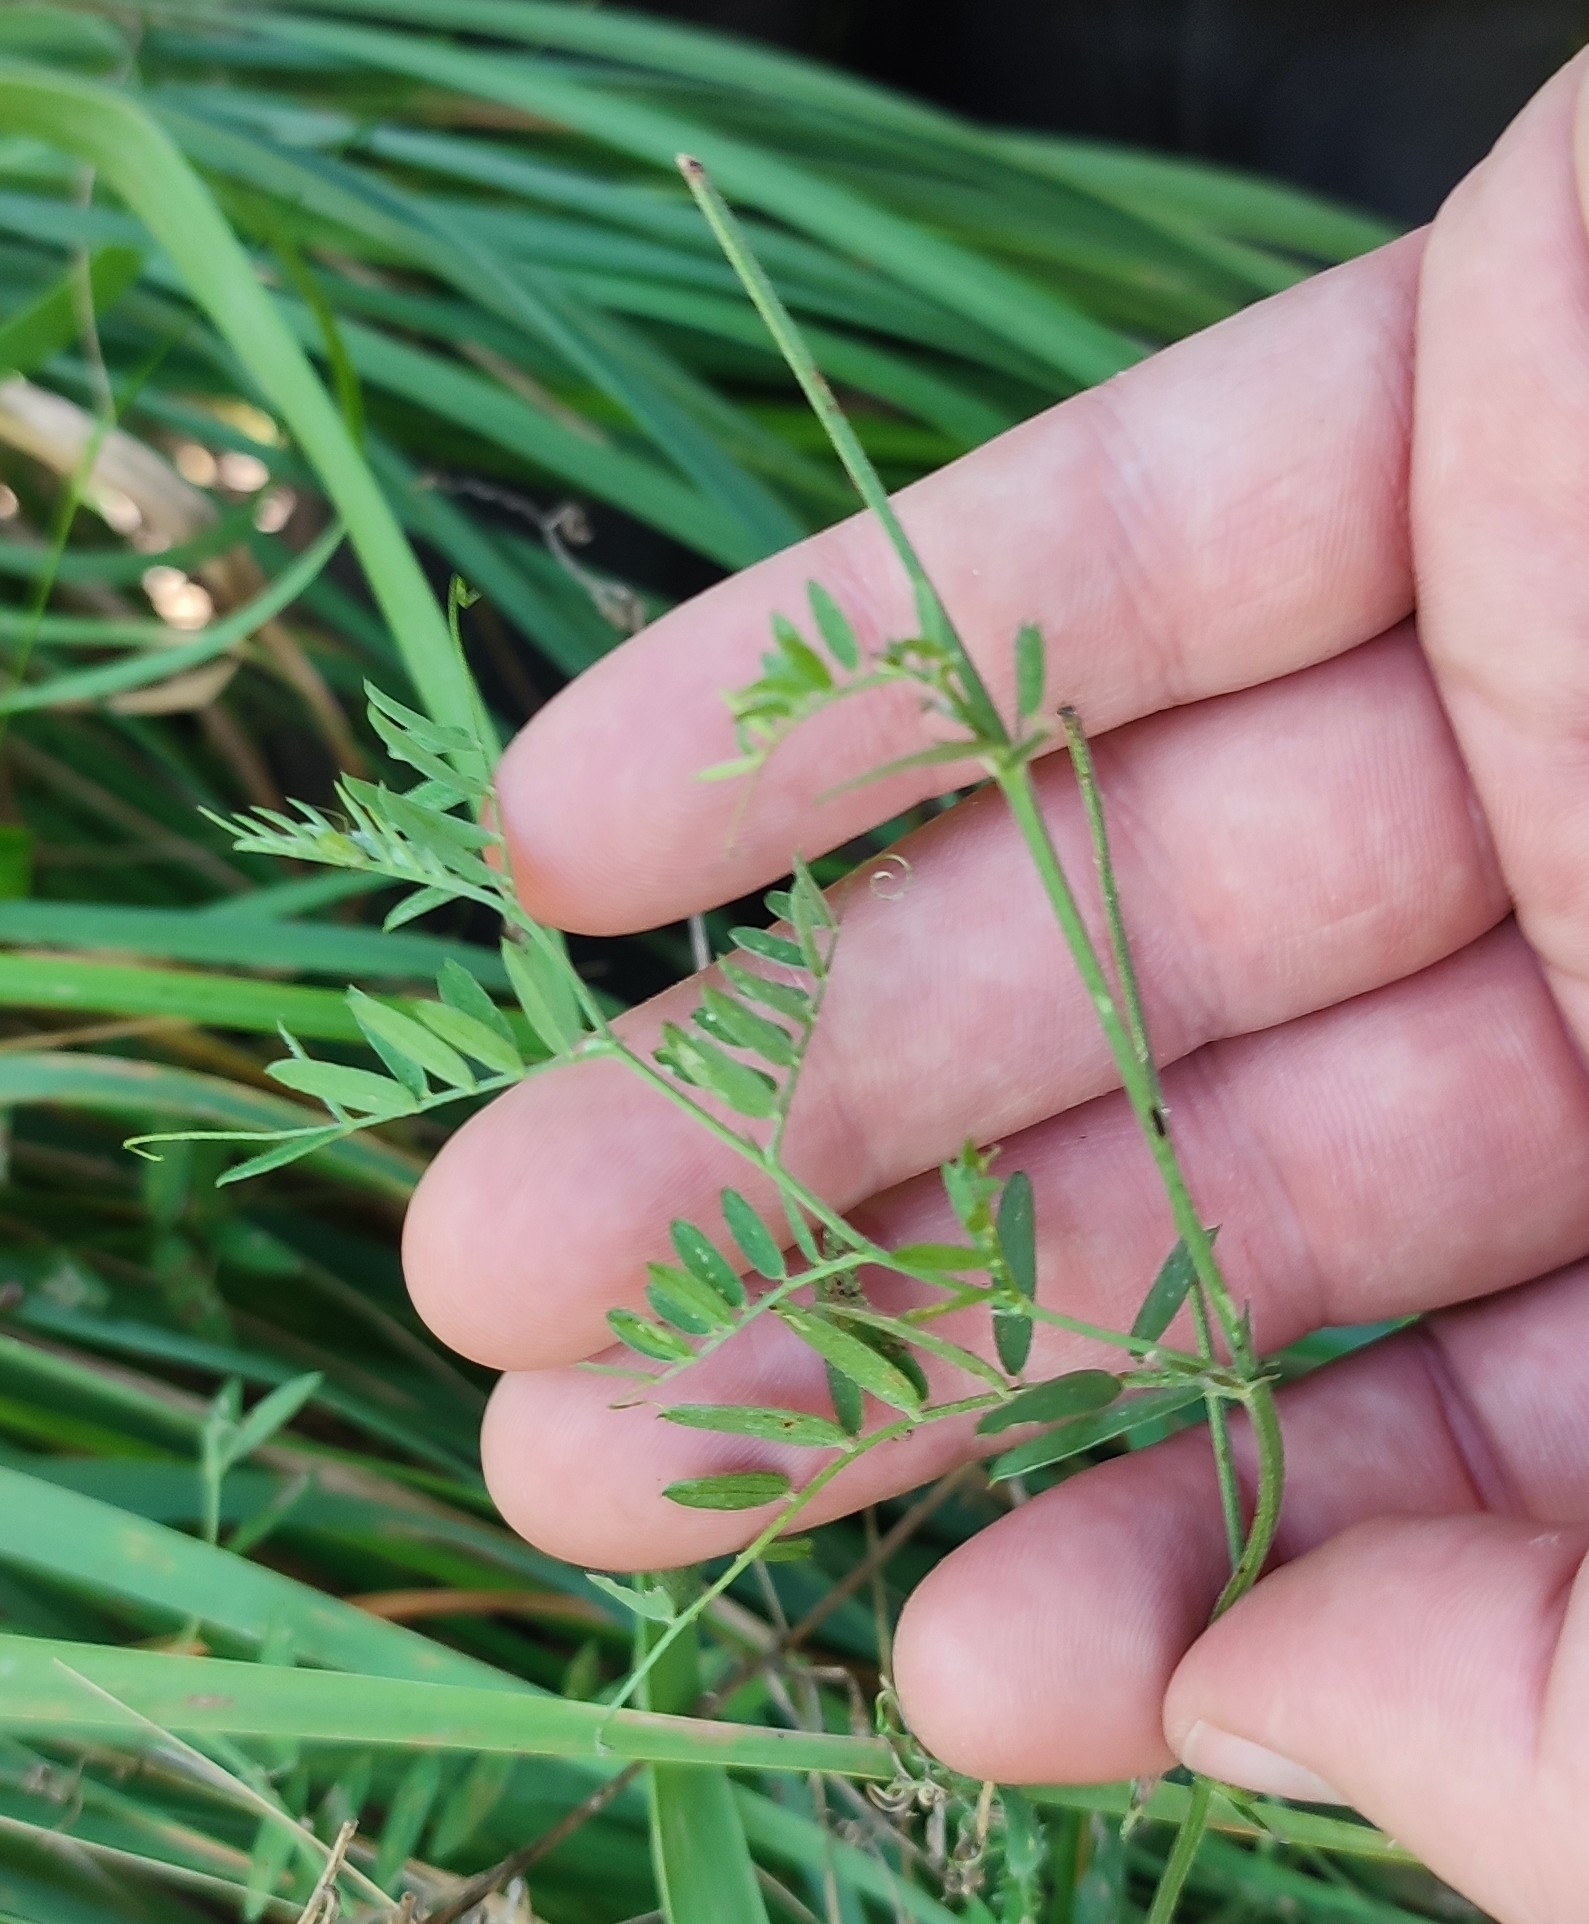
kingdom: Plantae
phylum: Tracheophyta
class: Magnoliopsida
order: Fabales
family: Fabaceae
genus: Vicia
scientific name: Vicia cracca
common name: Bird vetch
